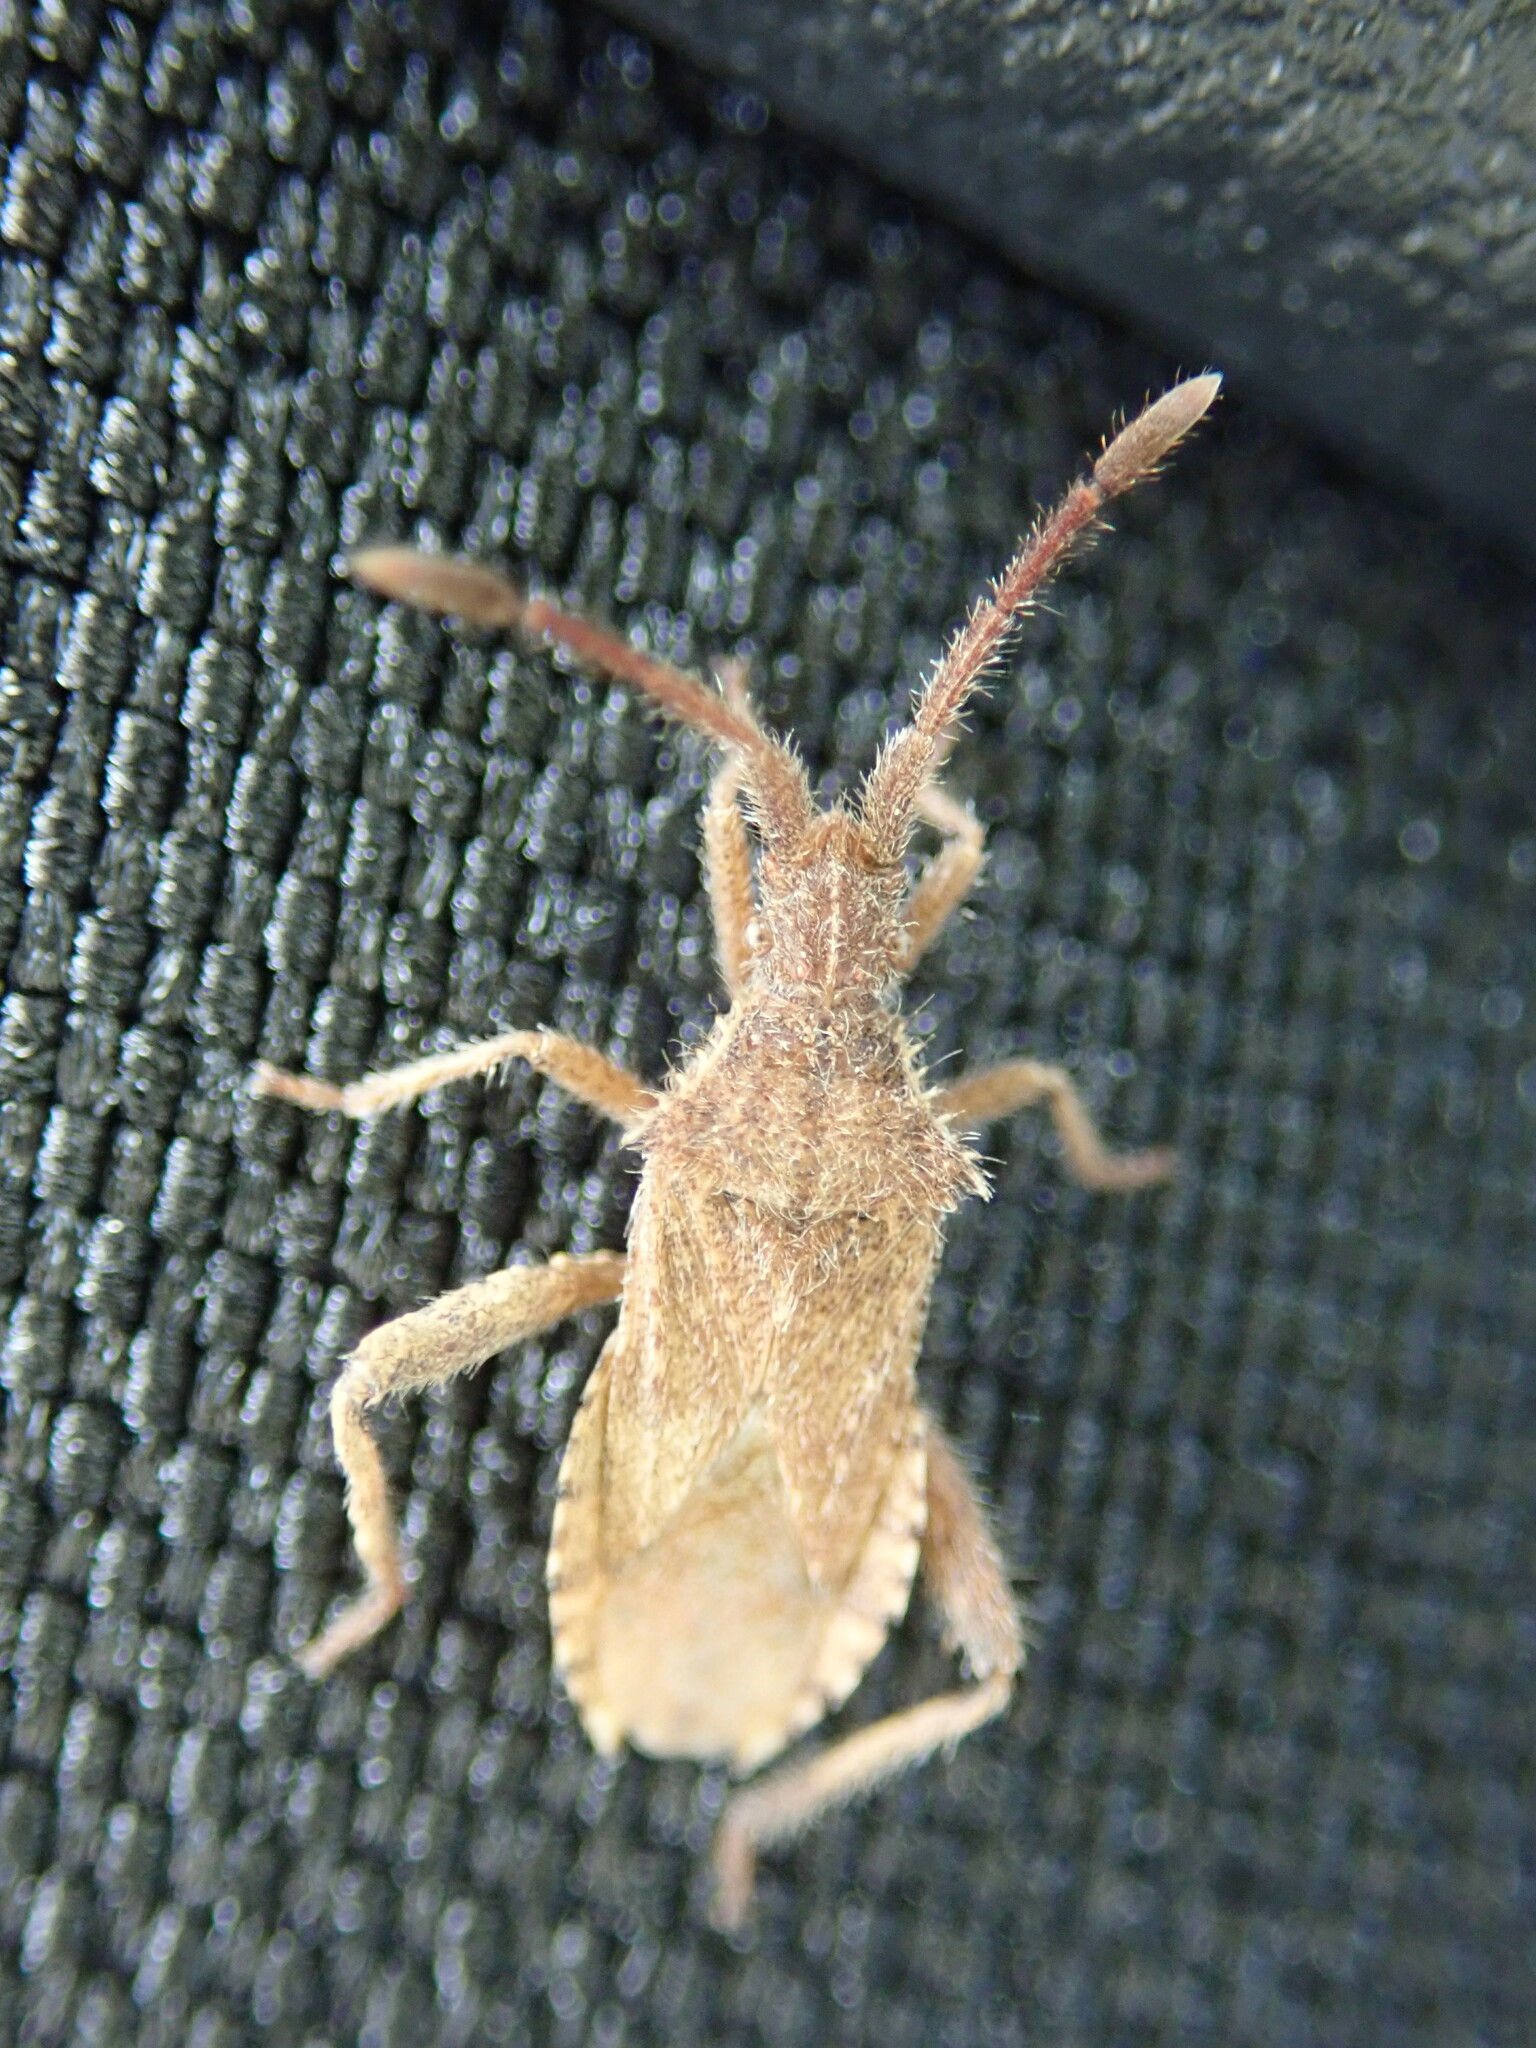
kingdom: Animalia
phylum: Arthropoda
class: Insecta
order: Hemiptera
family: Coreidae
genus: Coriomeris
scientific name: Coriomeris hirticornis
